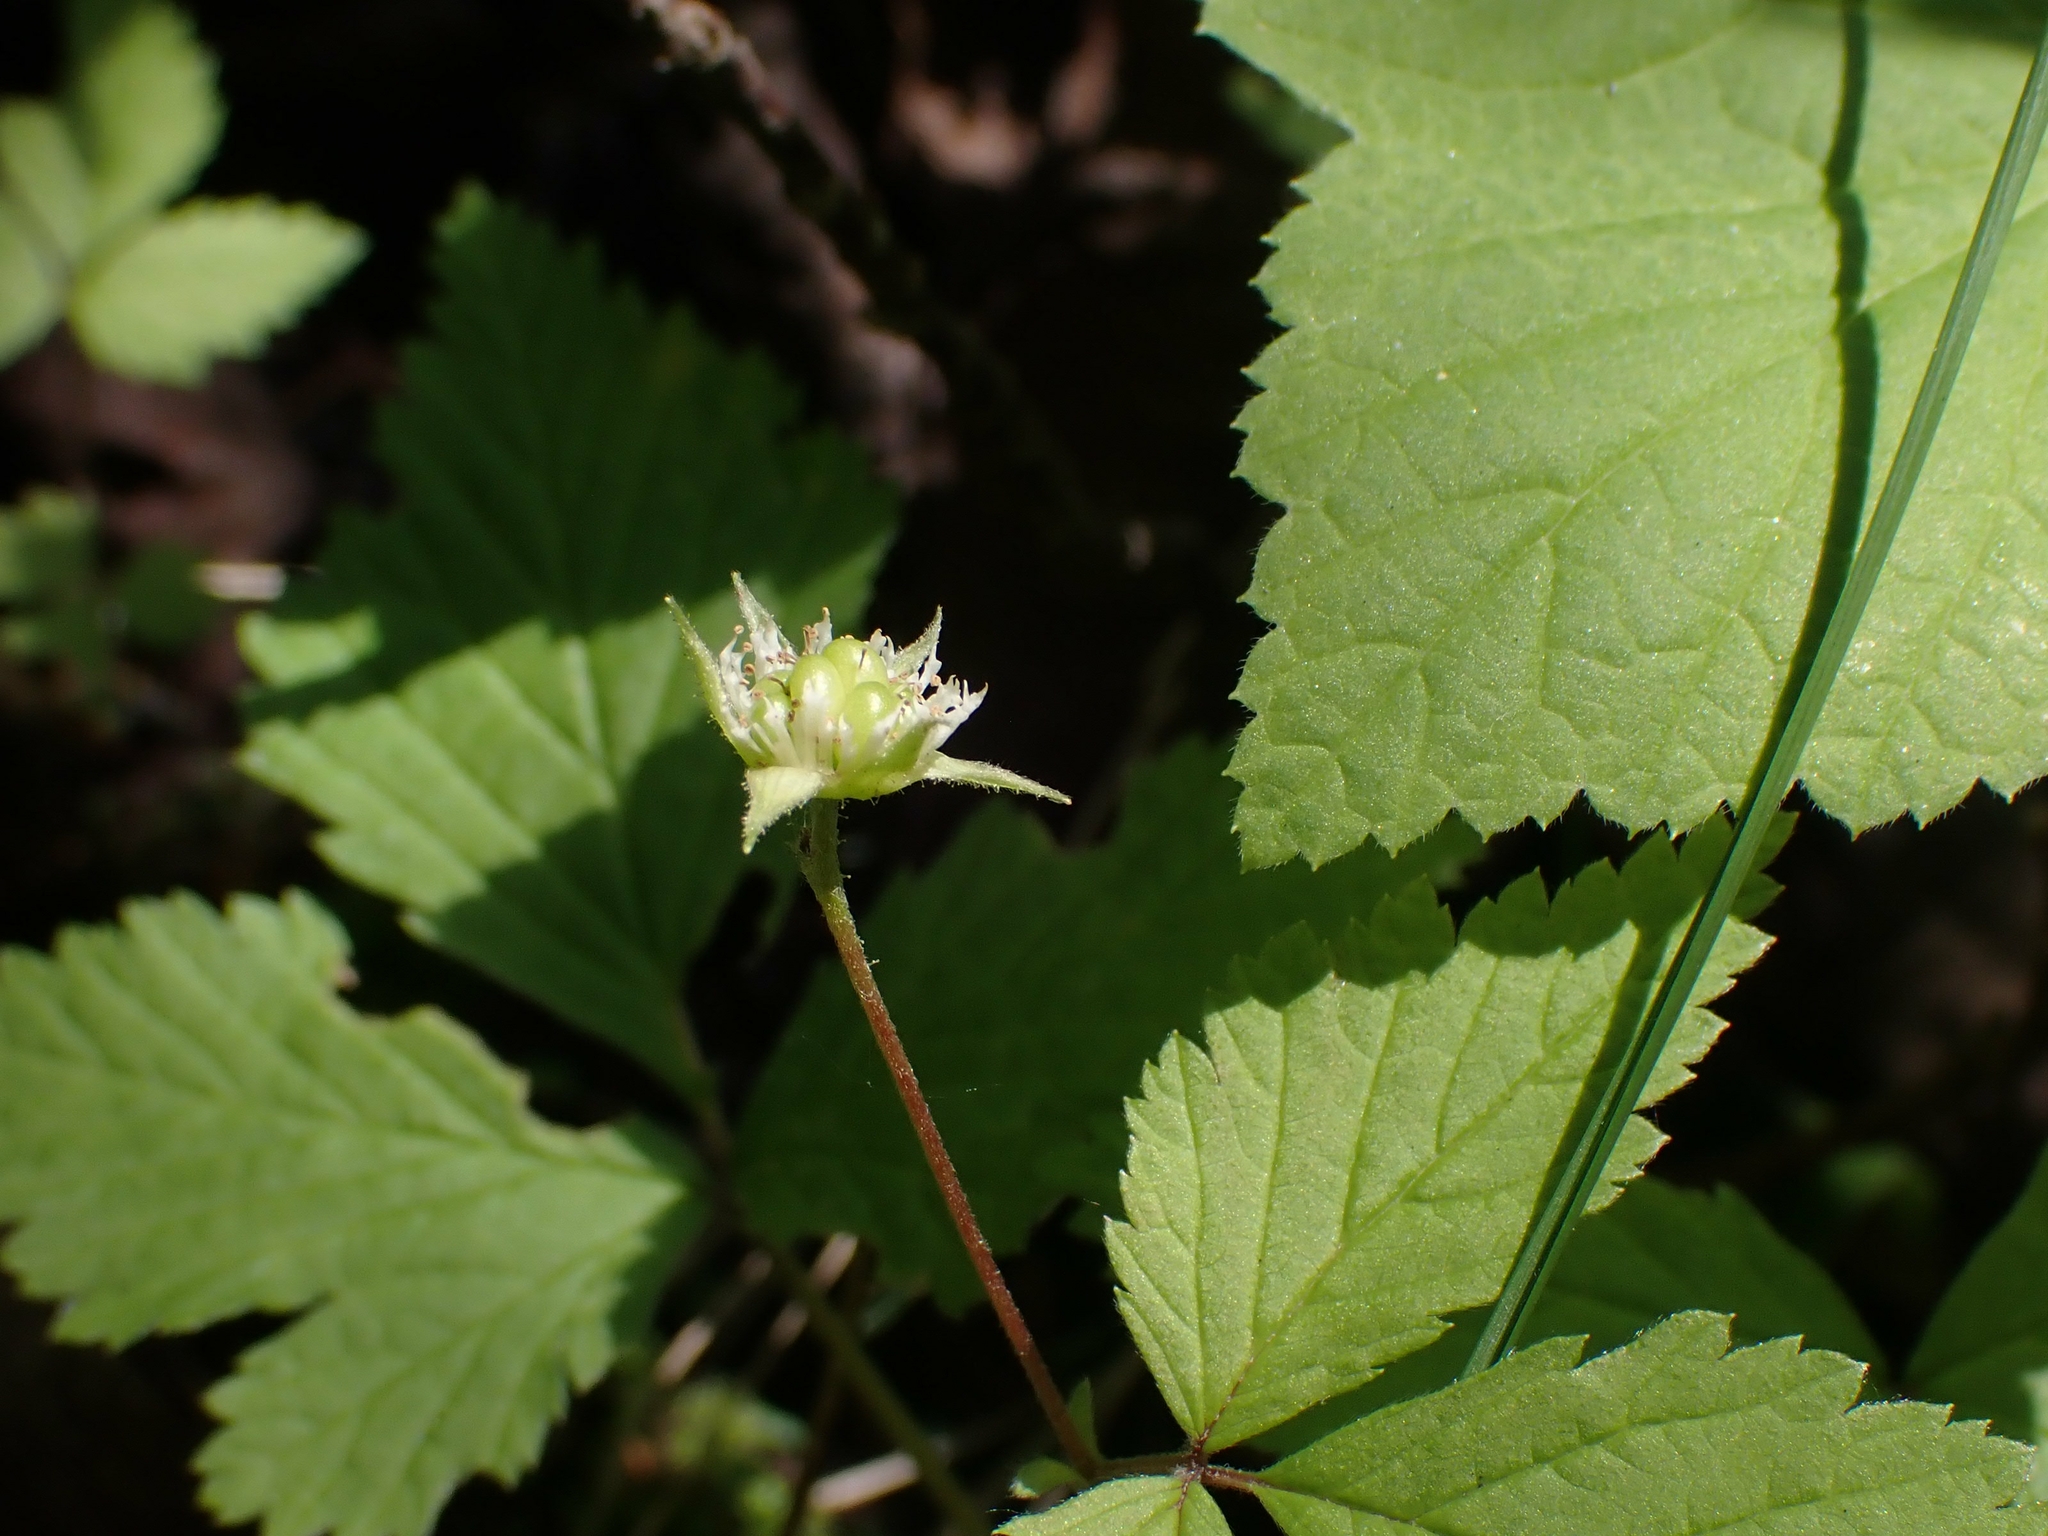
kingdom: Plantae
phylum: Tracheophyta
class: Magnoliopsida
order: Rosales
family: Rosaceae
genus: Rubus
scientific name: Rubus pubescens
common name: Dwarf raspberry
